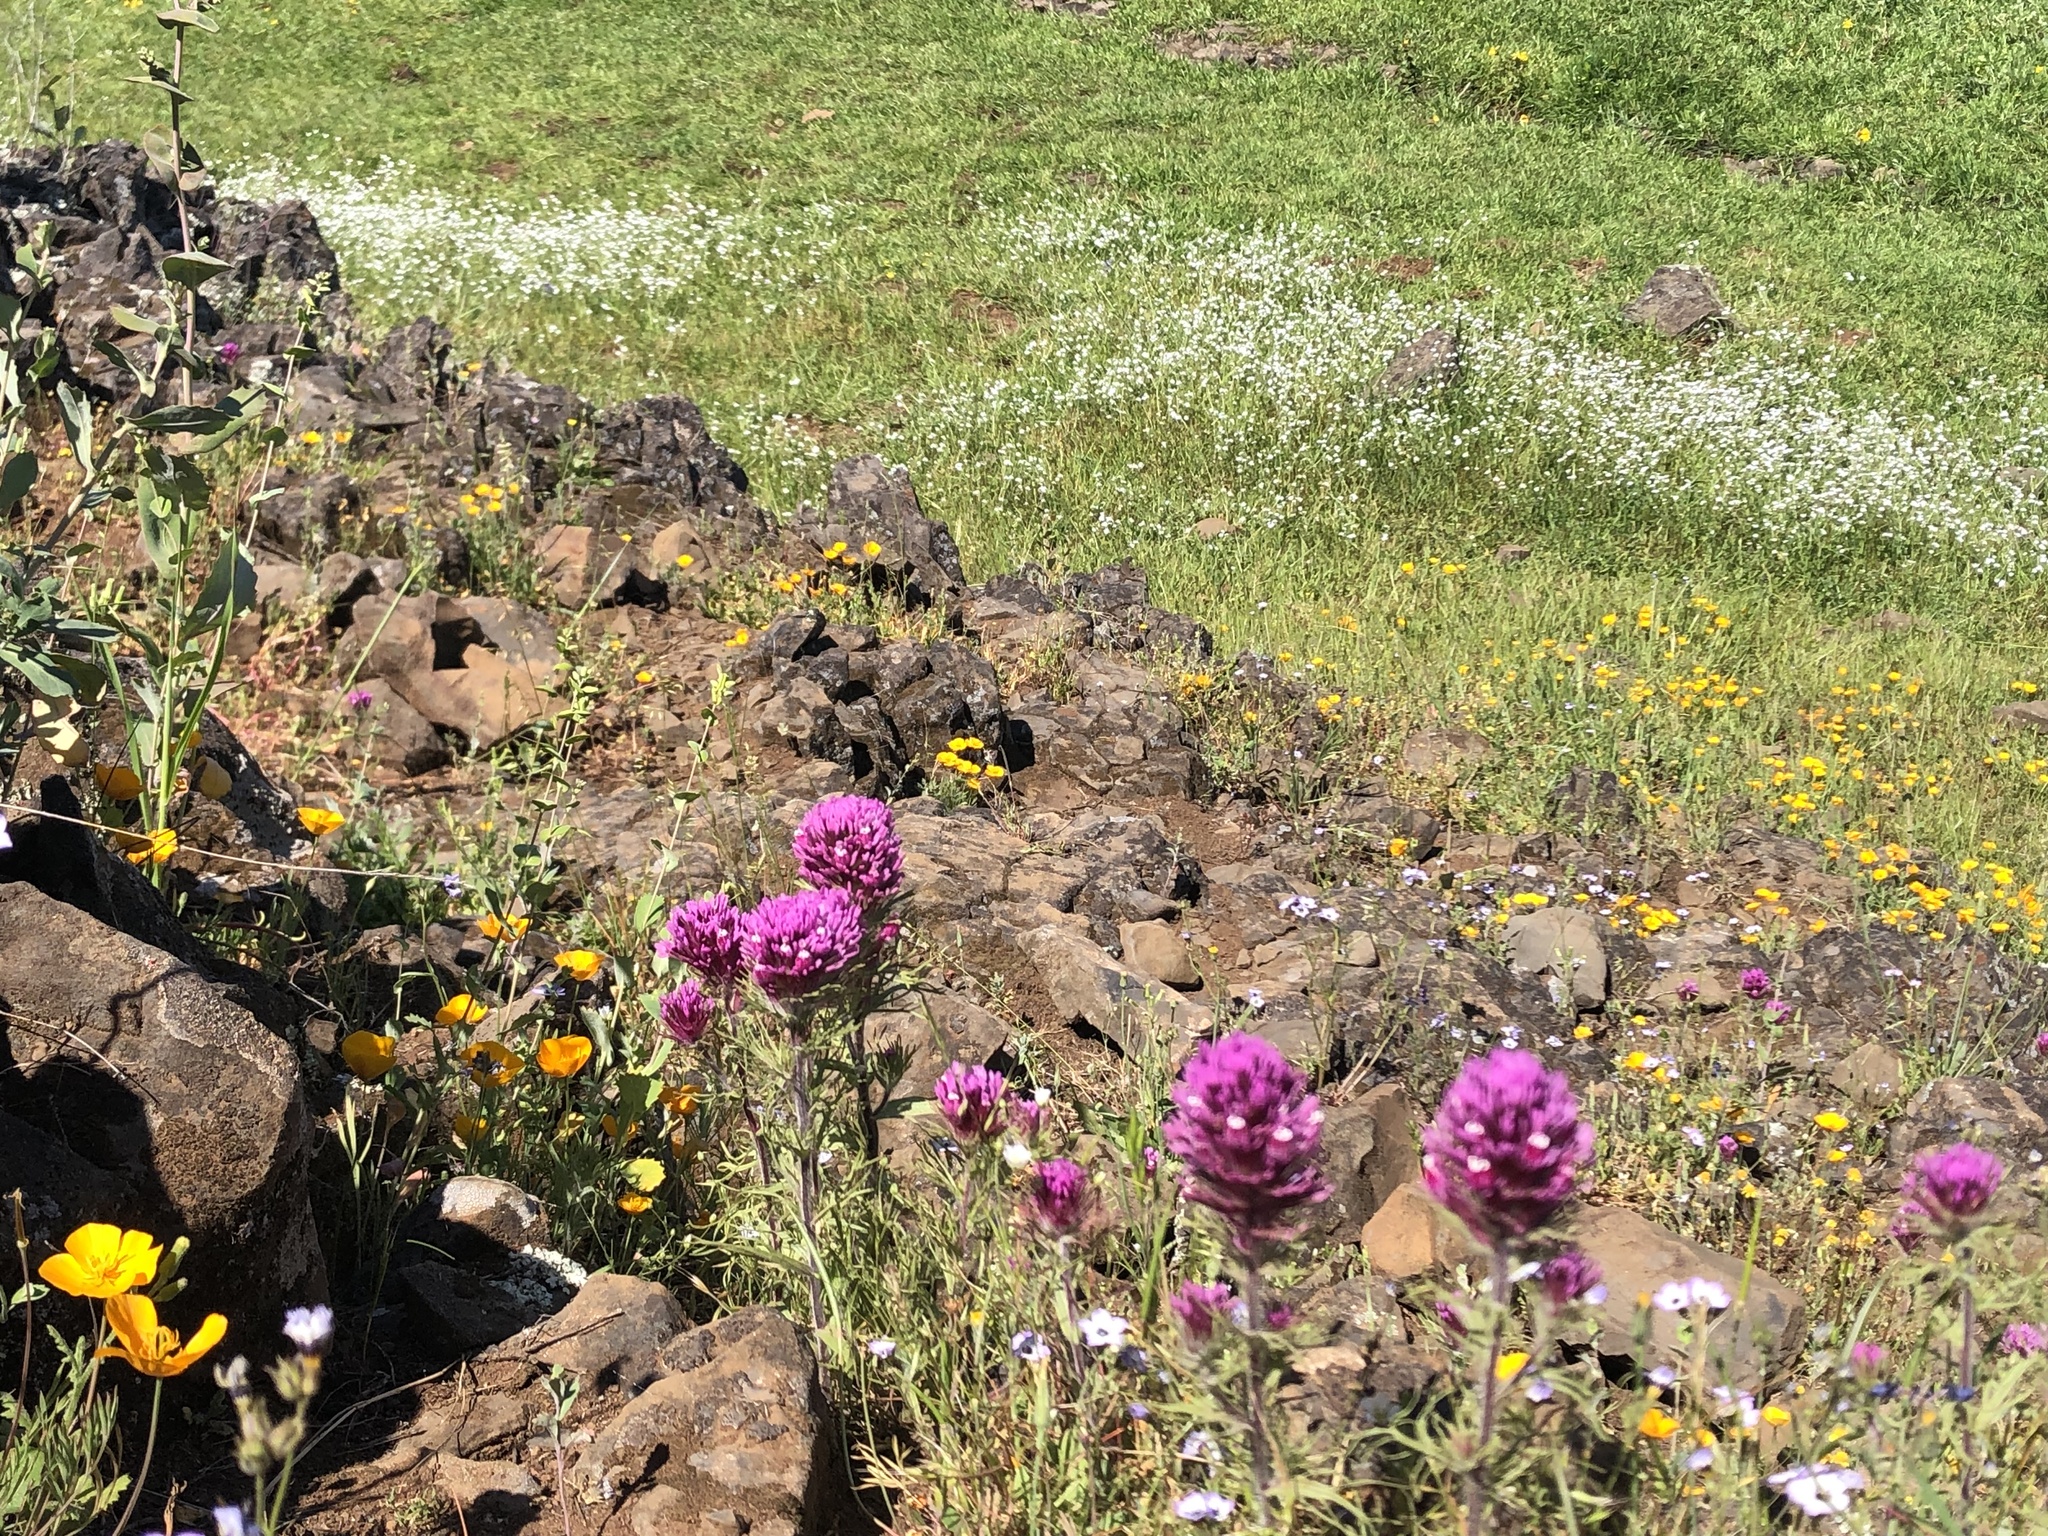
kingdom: Plantae
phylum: Tracheophyta
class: Magnoliopsida
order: Lamiales
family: Orobanchaceae
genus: Castilleja
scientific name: Castilleja exserta
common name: Purple owl-clover
